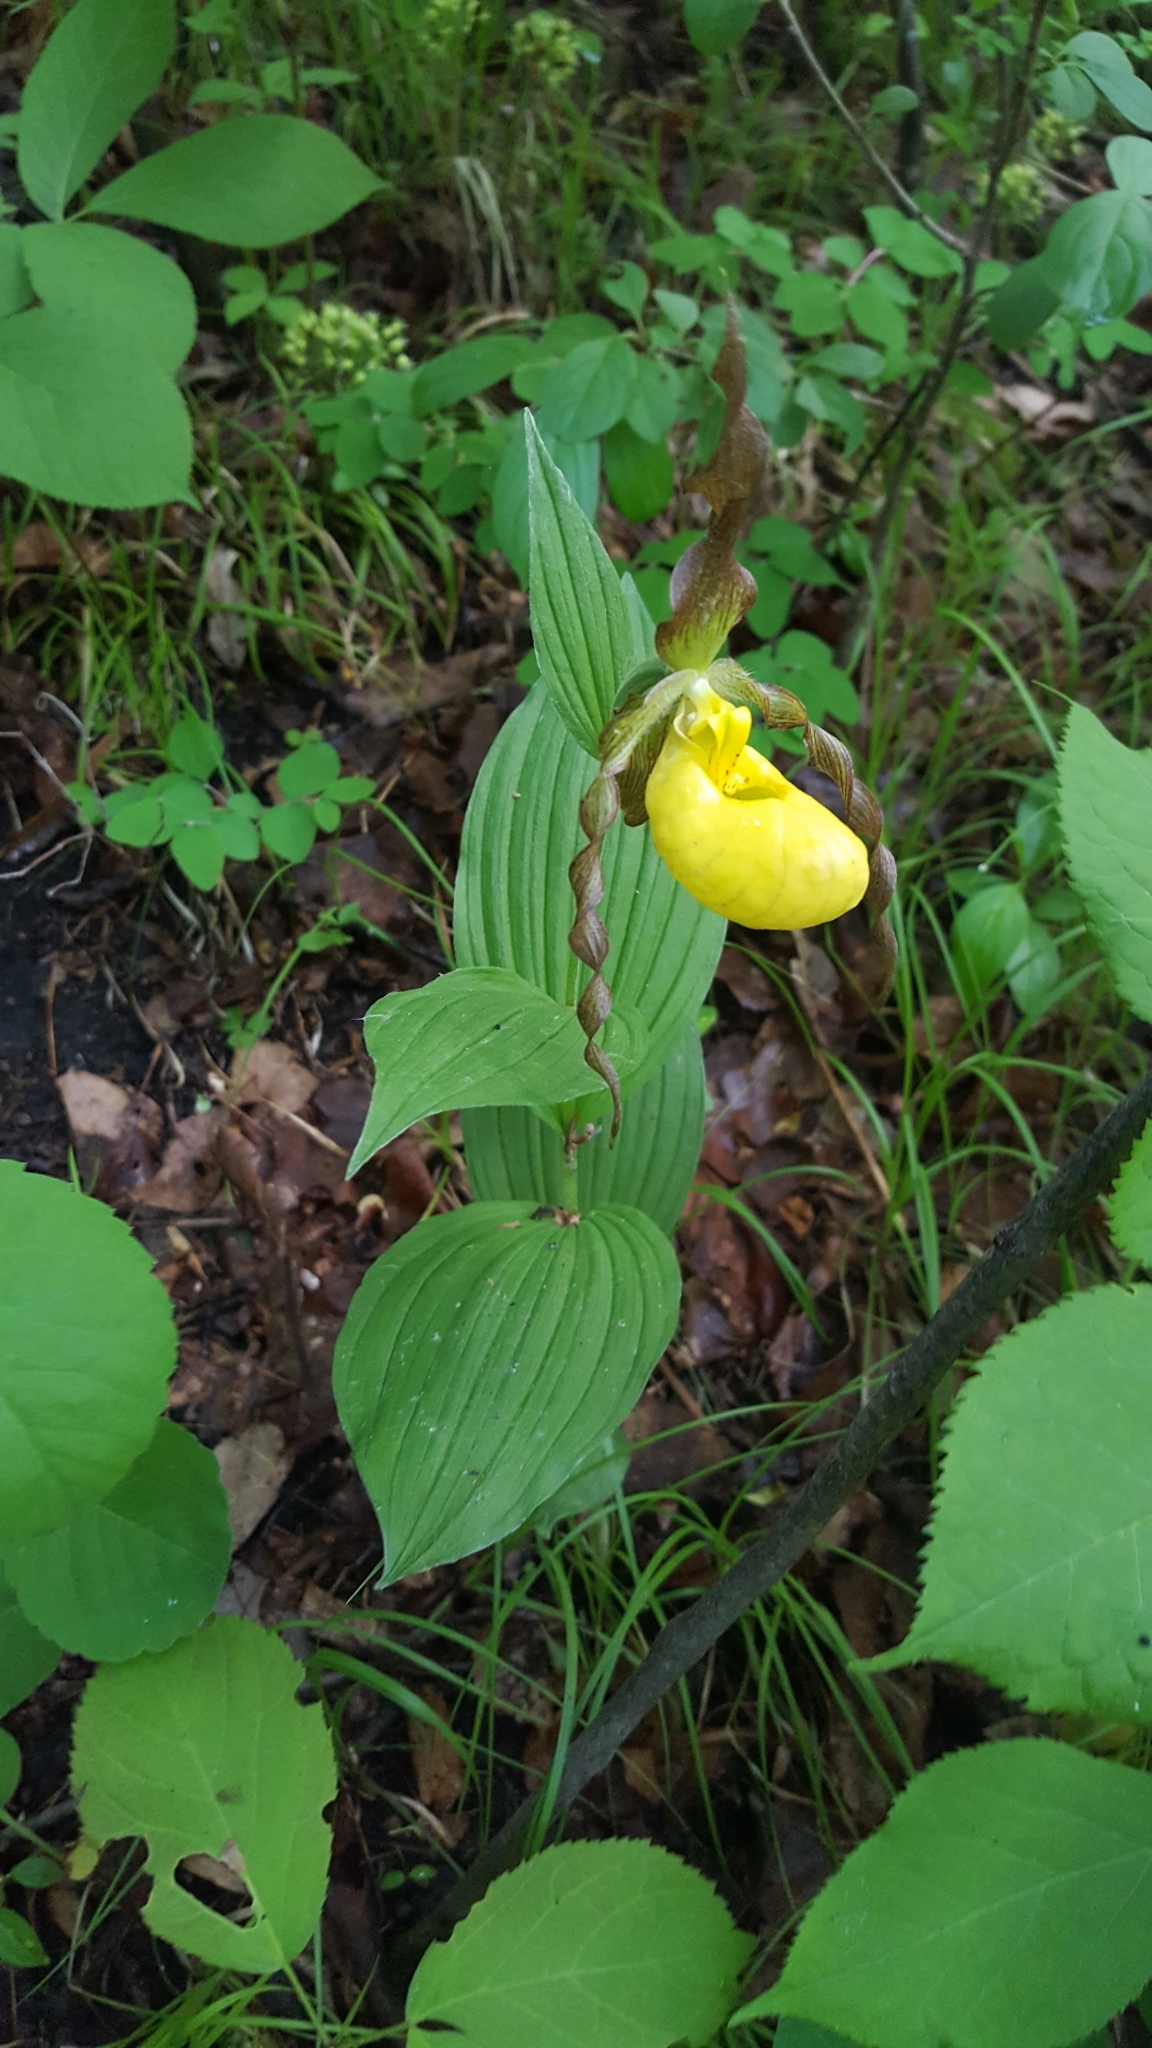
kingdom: Plantae
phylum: Tracheophyta
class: Liliopsida
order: Asparagales
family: Orchidaceae
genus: Cypripedium
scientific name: Cypripedium parviflorum
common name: American yellow lady's-slipper
